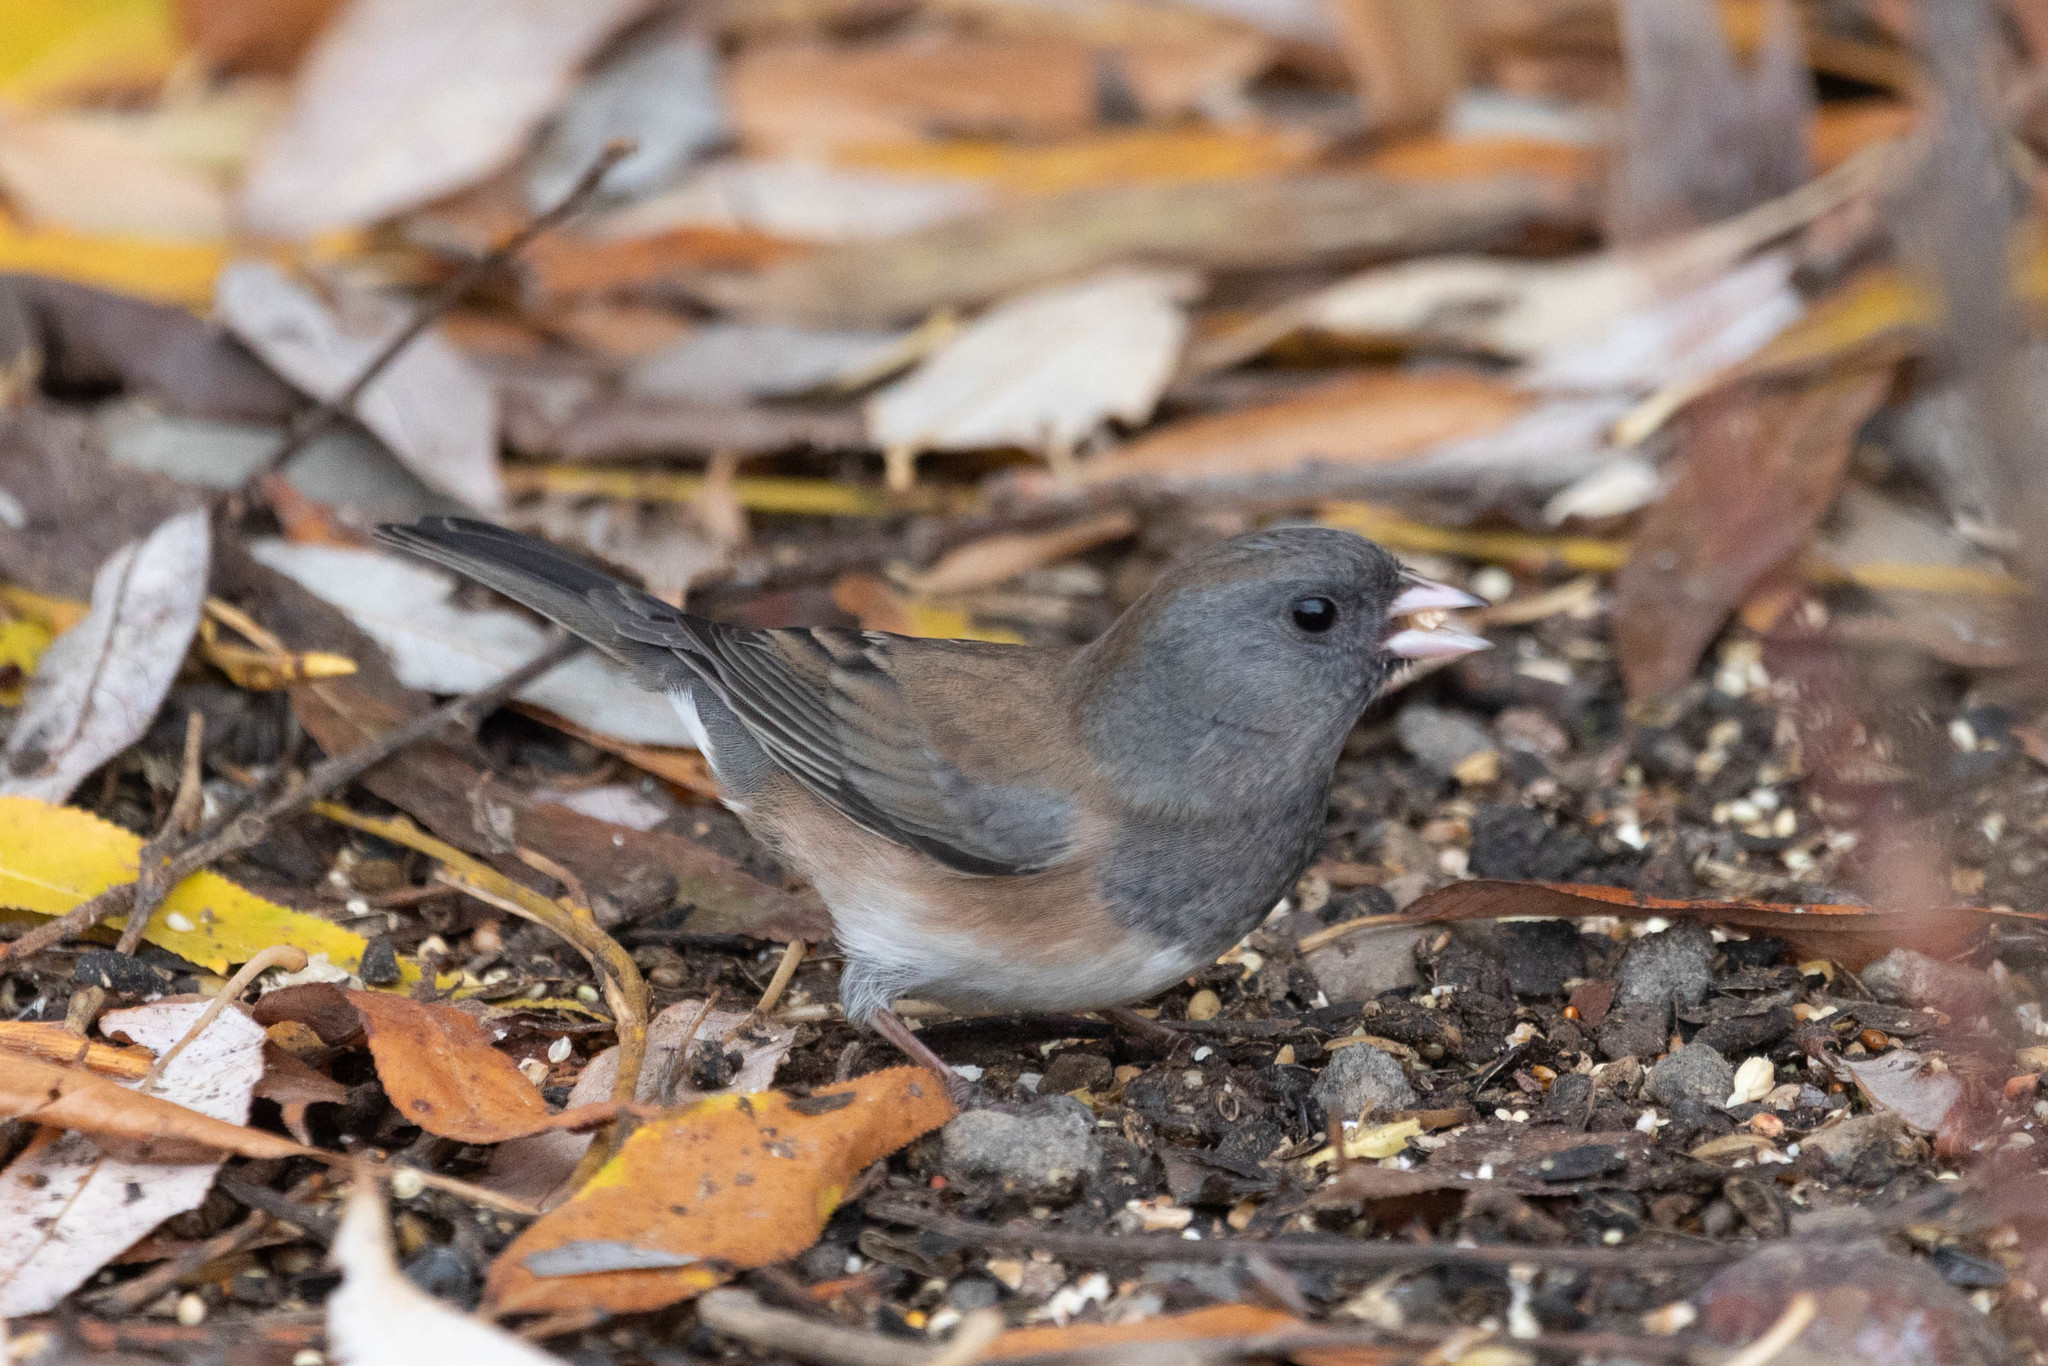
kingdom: Animalia
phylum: Chordata
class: Aves
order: Passeriformes
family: Passerellidae
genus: Junco
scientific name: Junco hyemalis
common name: Dark-eyed junco
